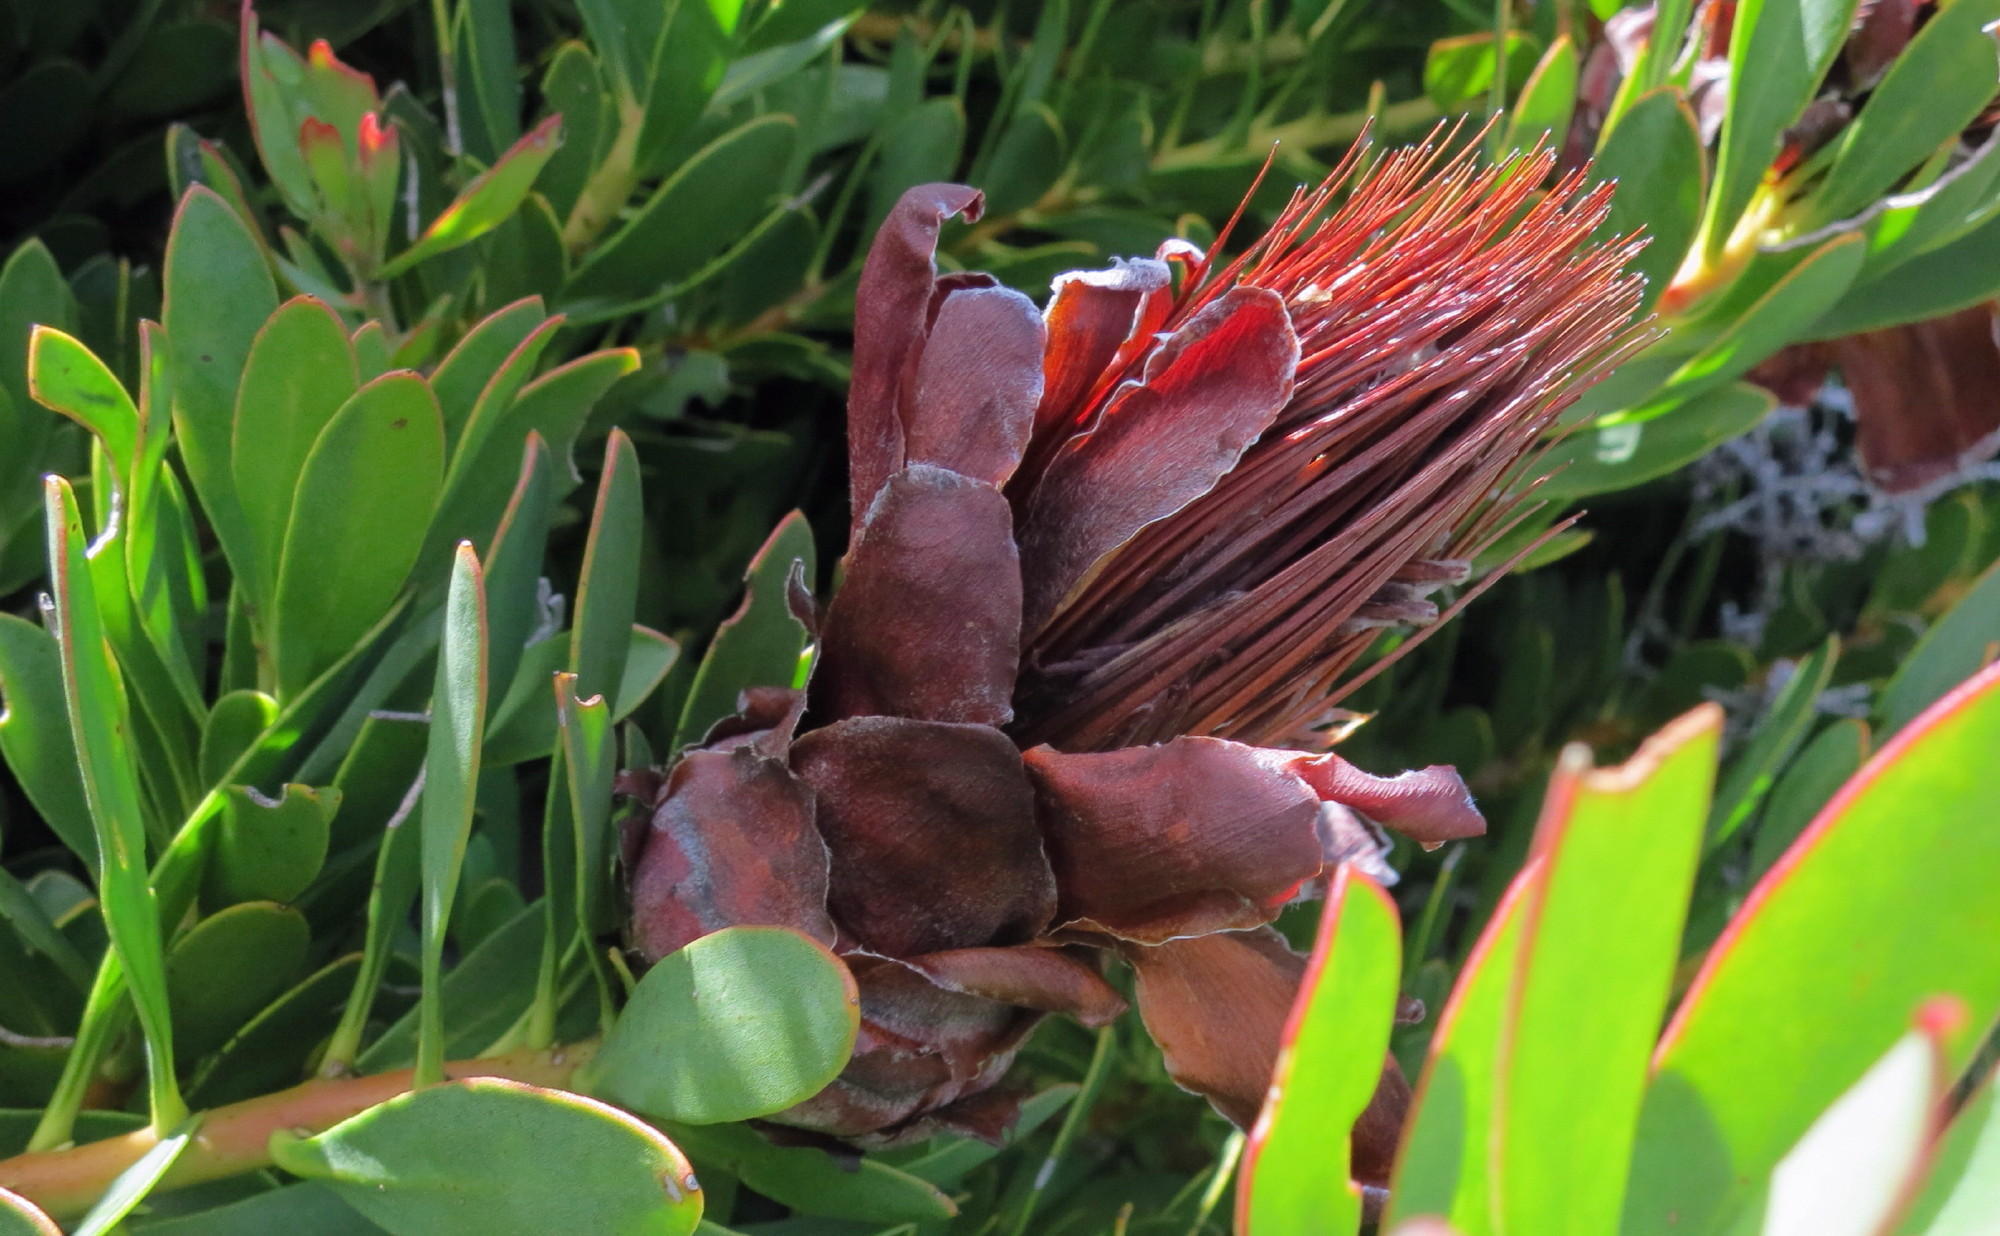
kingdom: Plantae
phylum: Tracheophyta
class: Magnoliopsida
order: Proteales
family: Proteaceae
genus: Protea
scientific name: Protea venusta
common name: Cascade sugarbush
